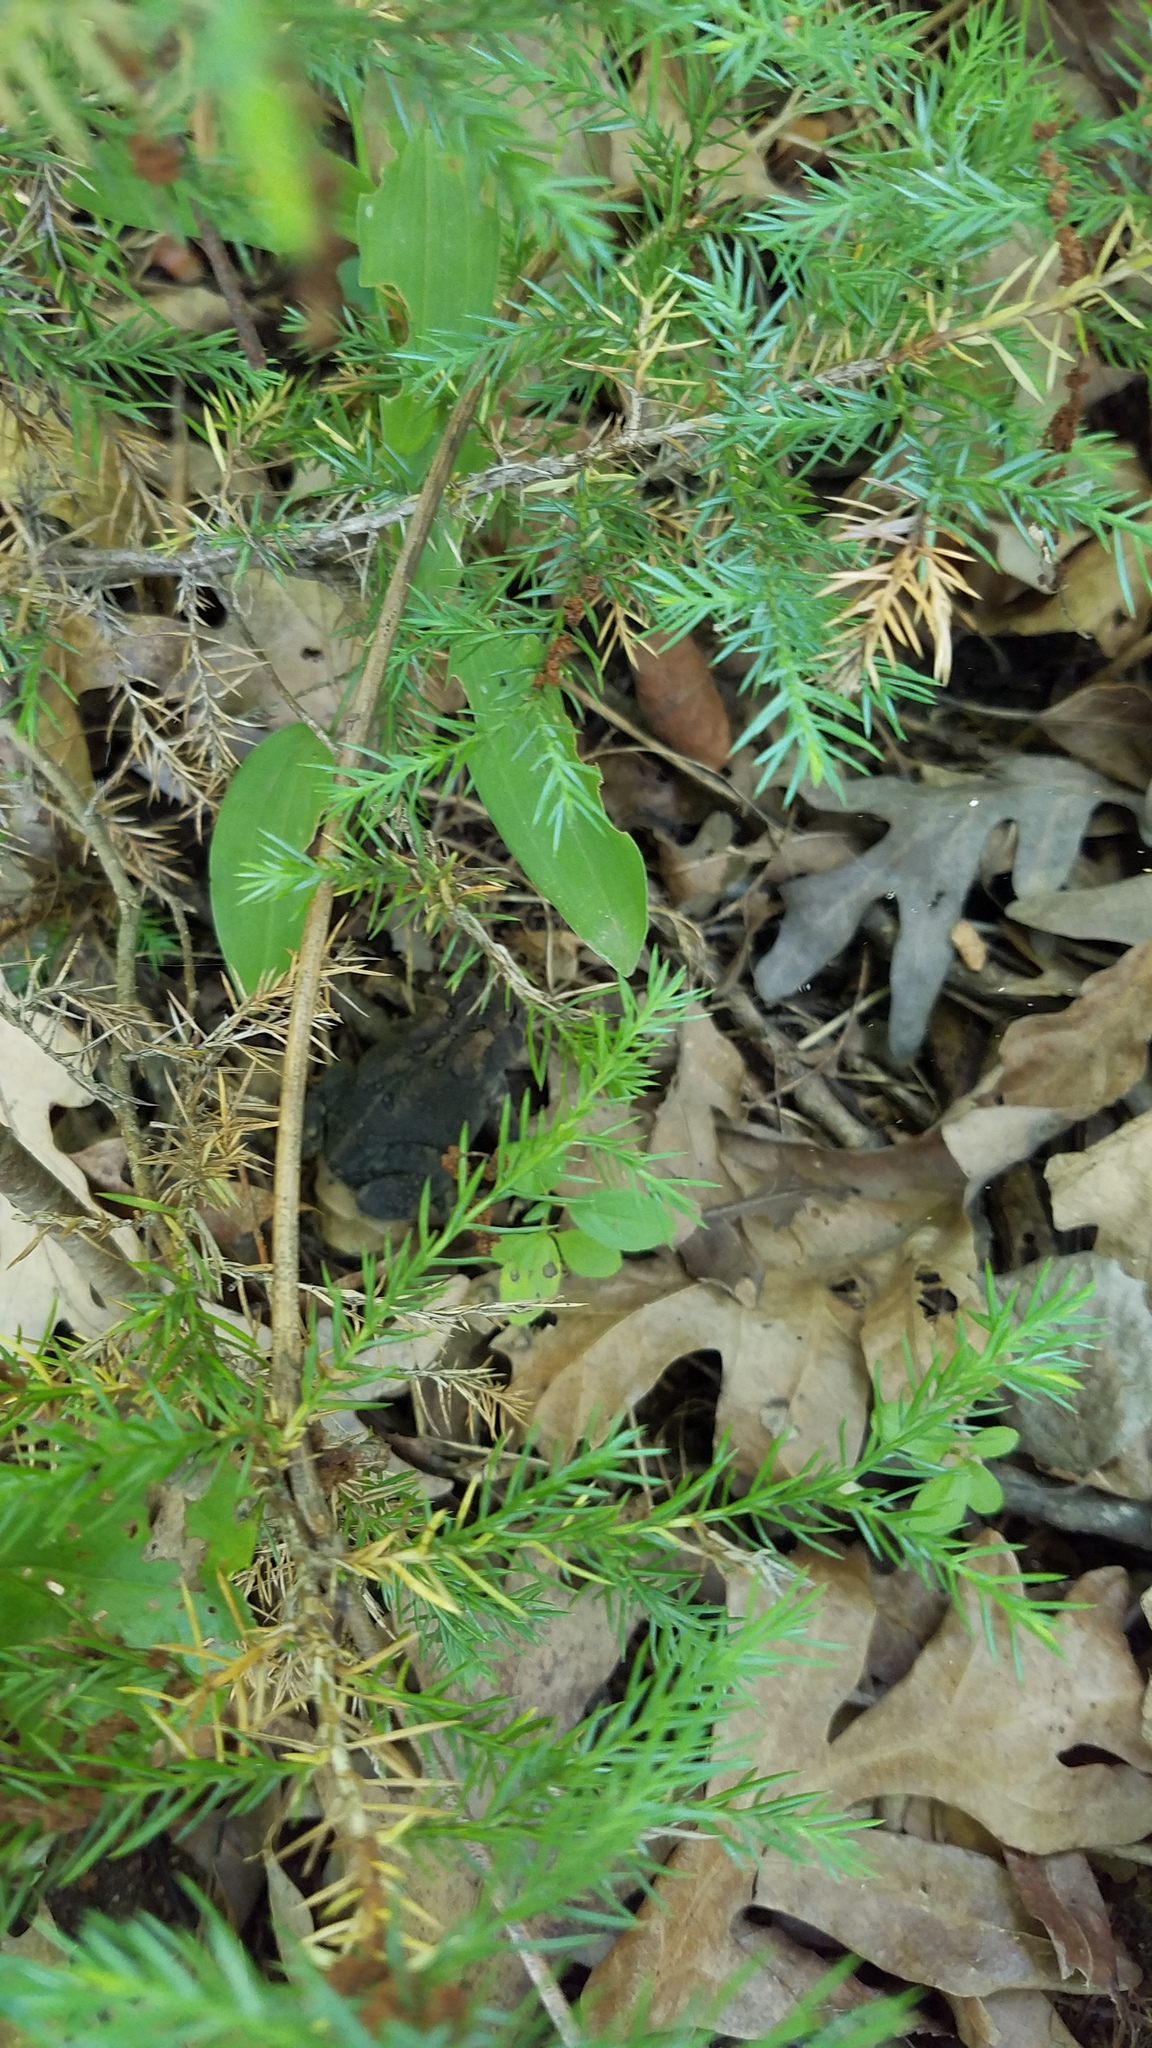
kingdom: Animalia
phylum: Chordata
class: Amphibia
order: Anura
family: Bufonidae
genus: Anaxyrus
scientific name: Anaxyrus americanus
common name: American toad
